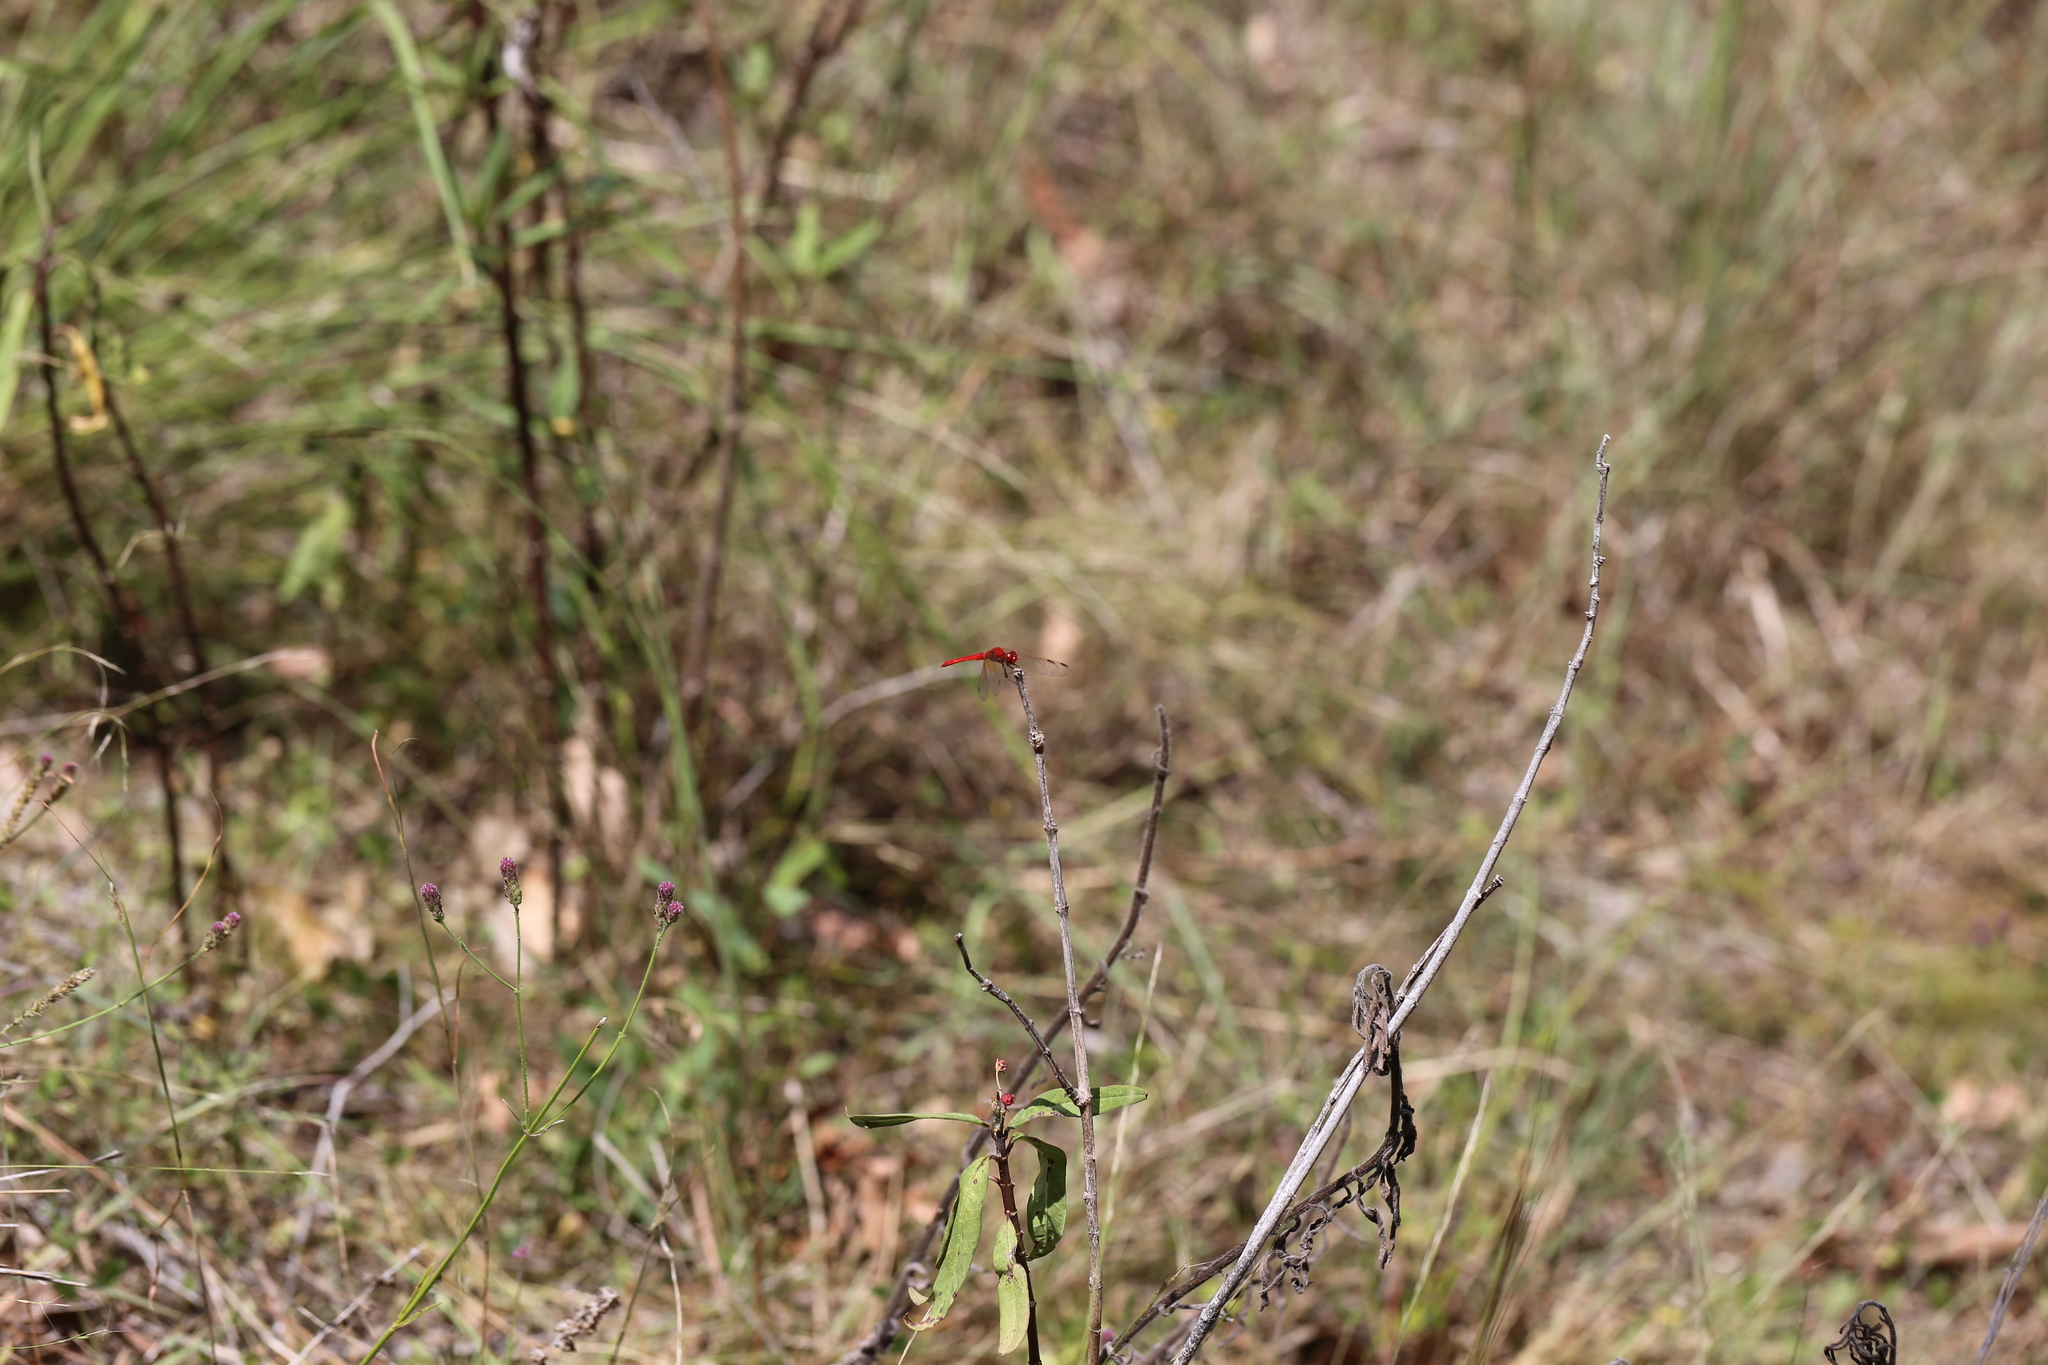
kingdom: Animalia
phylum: Arthropoda
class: Insecta
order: Odonata
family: Libellulidae
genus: Diplacodes
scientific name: Diplacodes haematodes
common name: Scarlet percher
